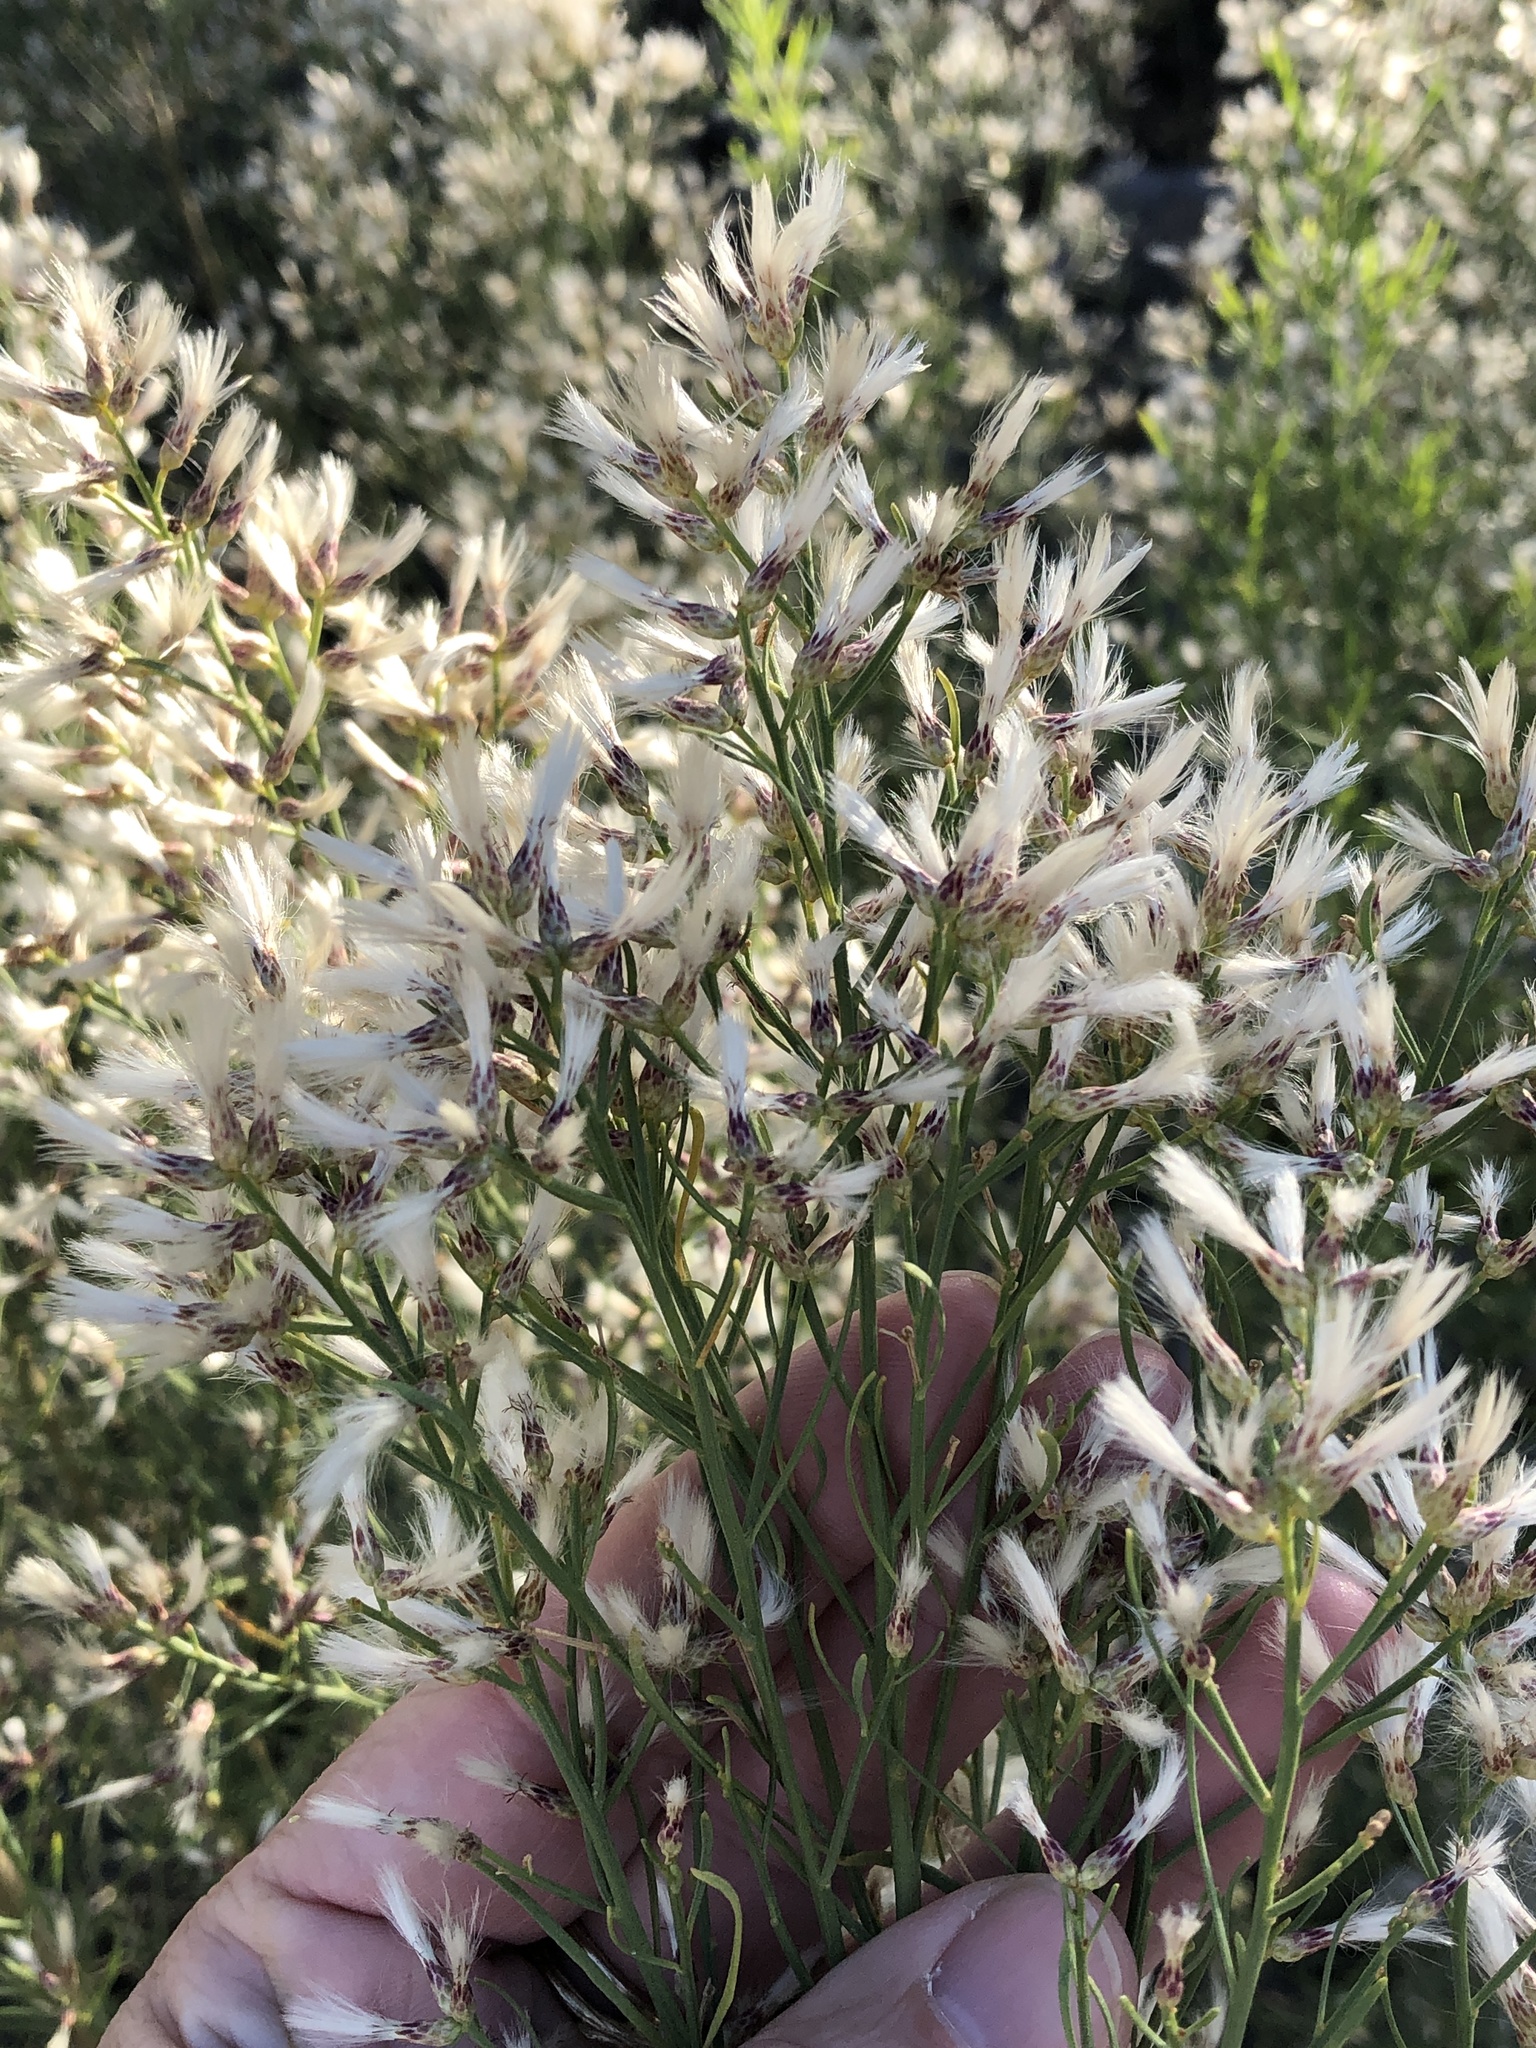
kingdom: Plantae
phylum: Tracheophyta
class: Magnoliopsida
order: Asterales
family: Asteraceae
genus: Baccharis
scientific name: Baccharis neglecta
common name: Roosevelt-weed
